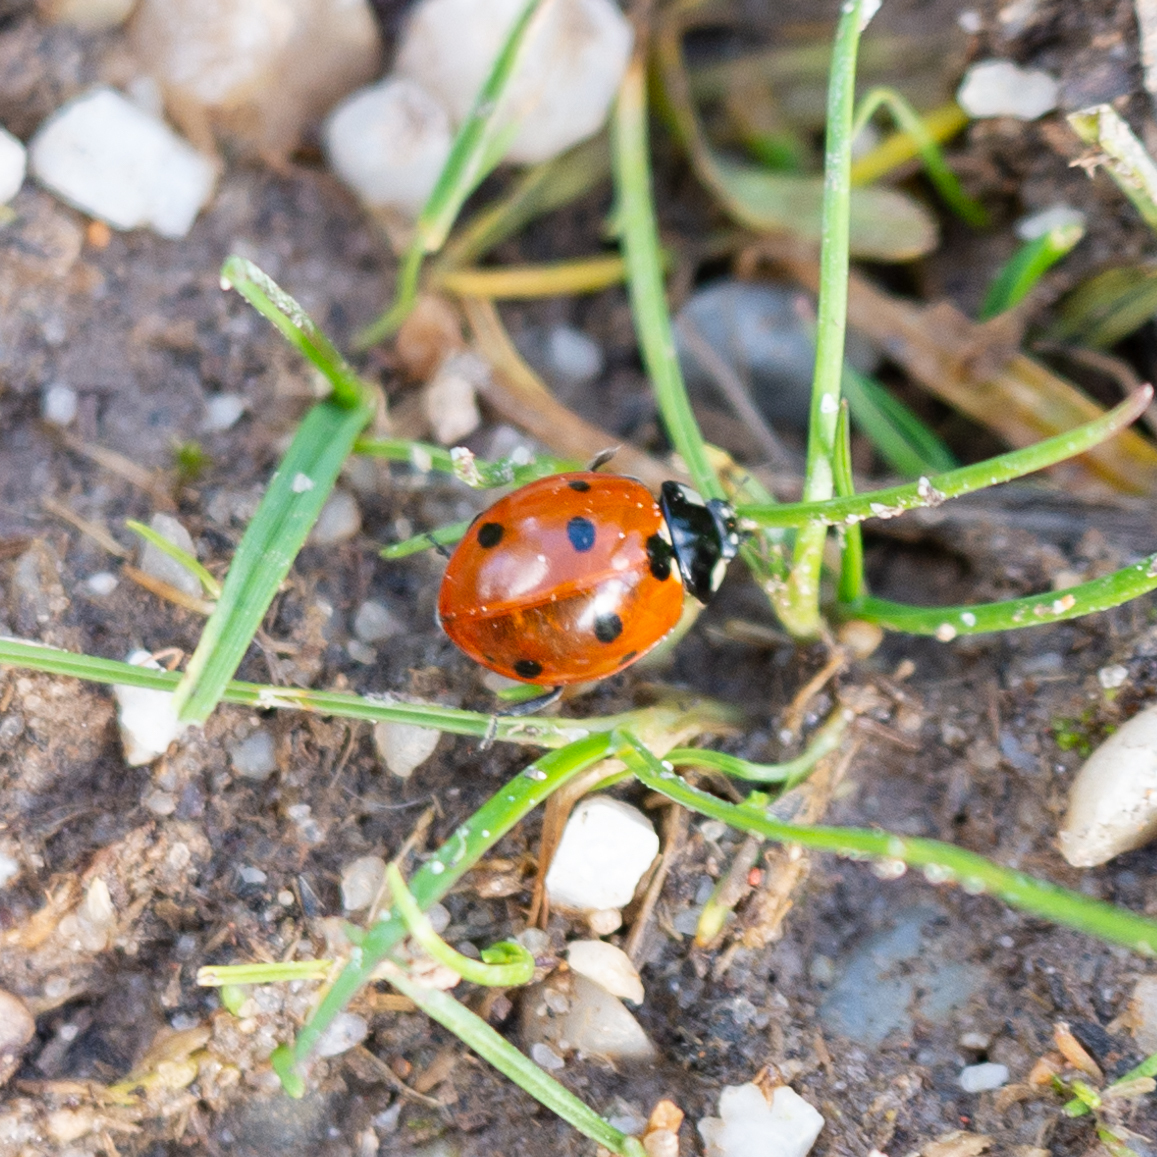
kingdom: Animalia
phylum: Arthropoda
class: Insecta
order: Coleoptera
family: Coccinellidae
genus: Coccinella
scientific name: Coccinella septempunctata
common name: Sevenspotted lady beetle
